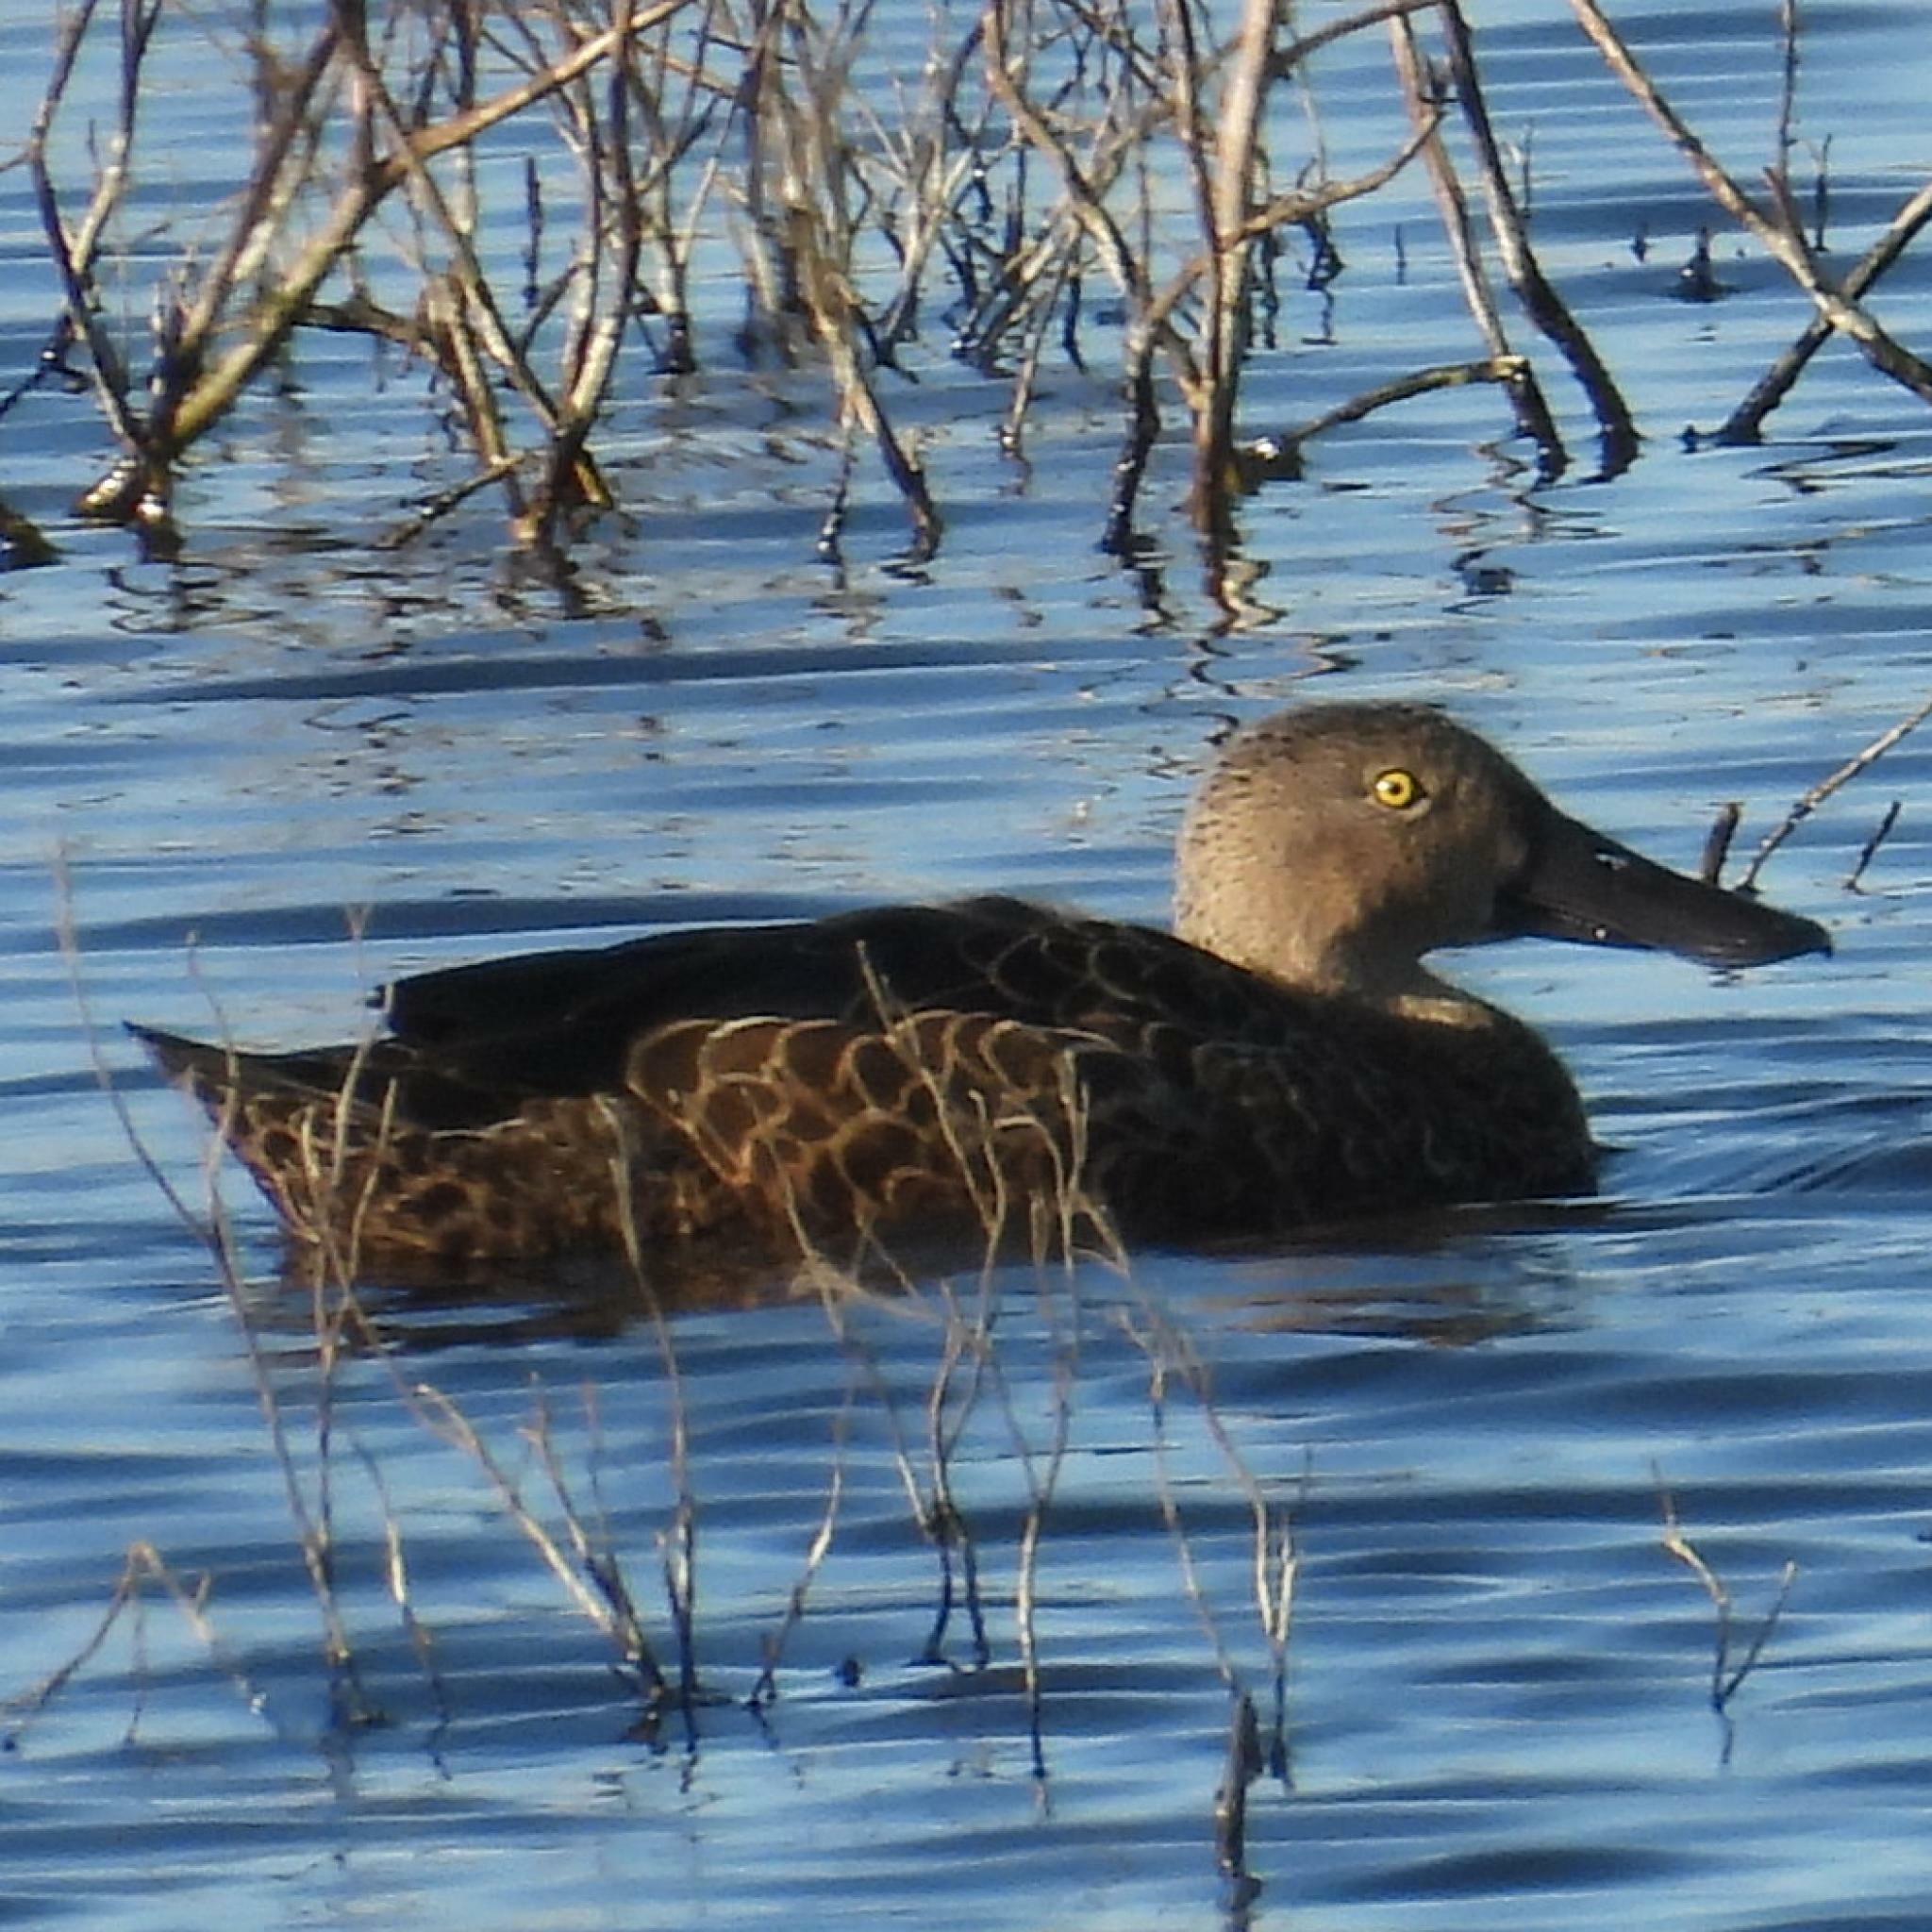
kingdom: Animalia
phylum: Chordata
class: Aves
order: Anseriformes
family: Anatidae
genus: Spatula
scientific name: Spatula smithii
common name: Cape shoveler
